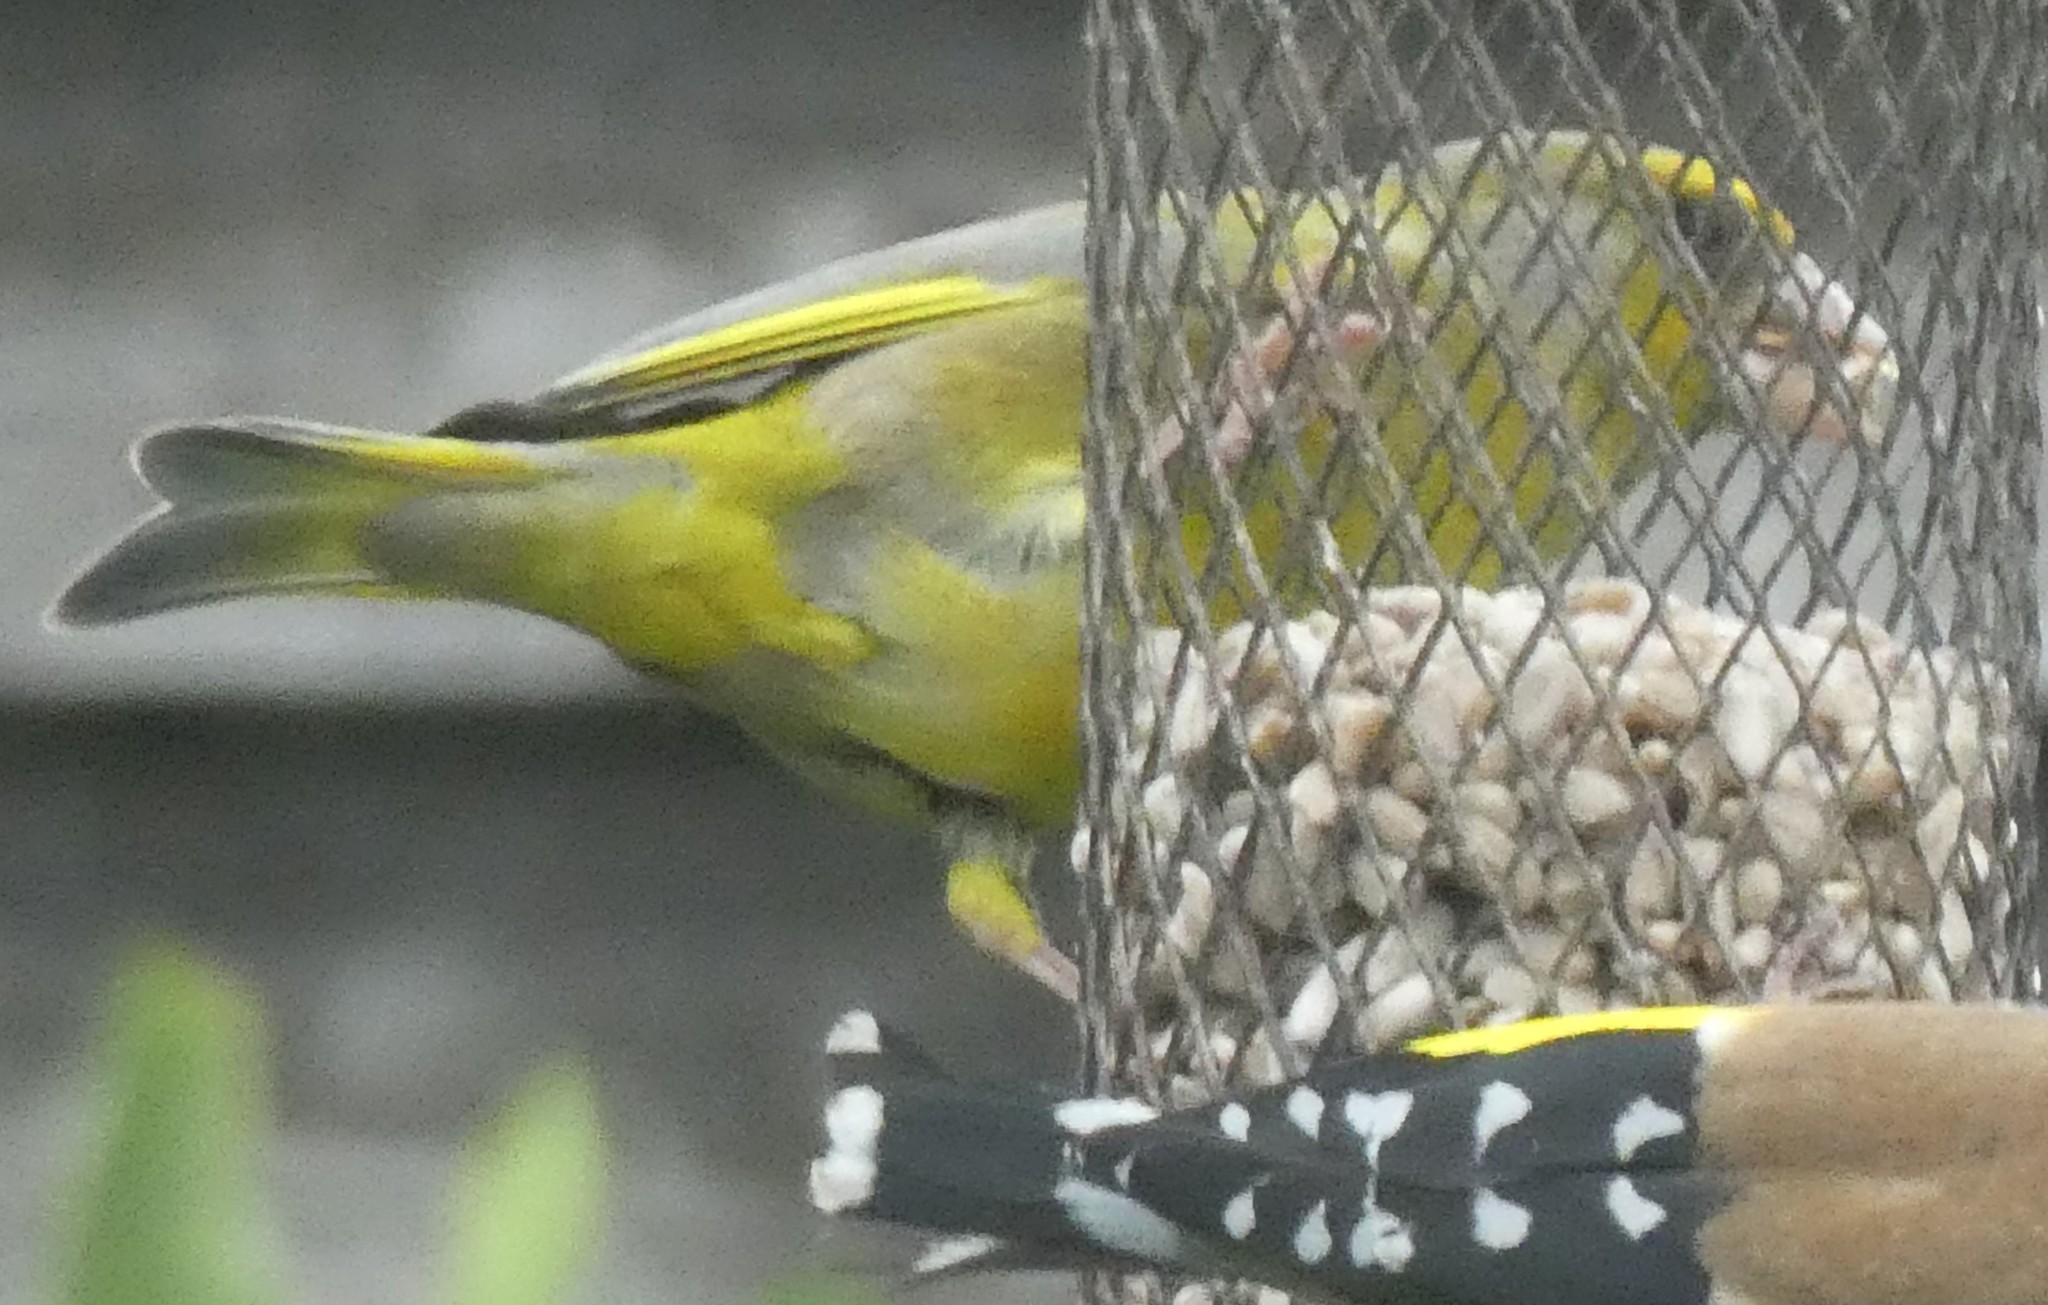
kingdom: Plantae
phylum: Tracheophyta
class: Liliopsida
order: Poales
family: Poaceae
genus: Chloris
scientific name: Chloris chloris
